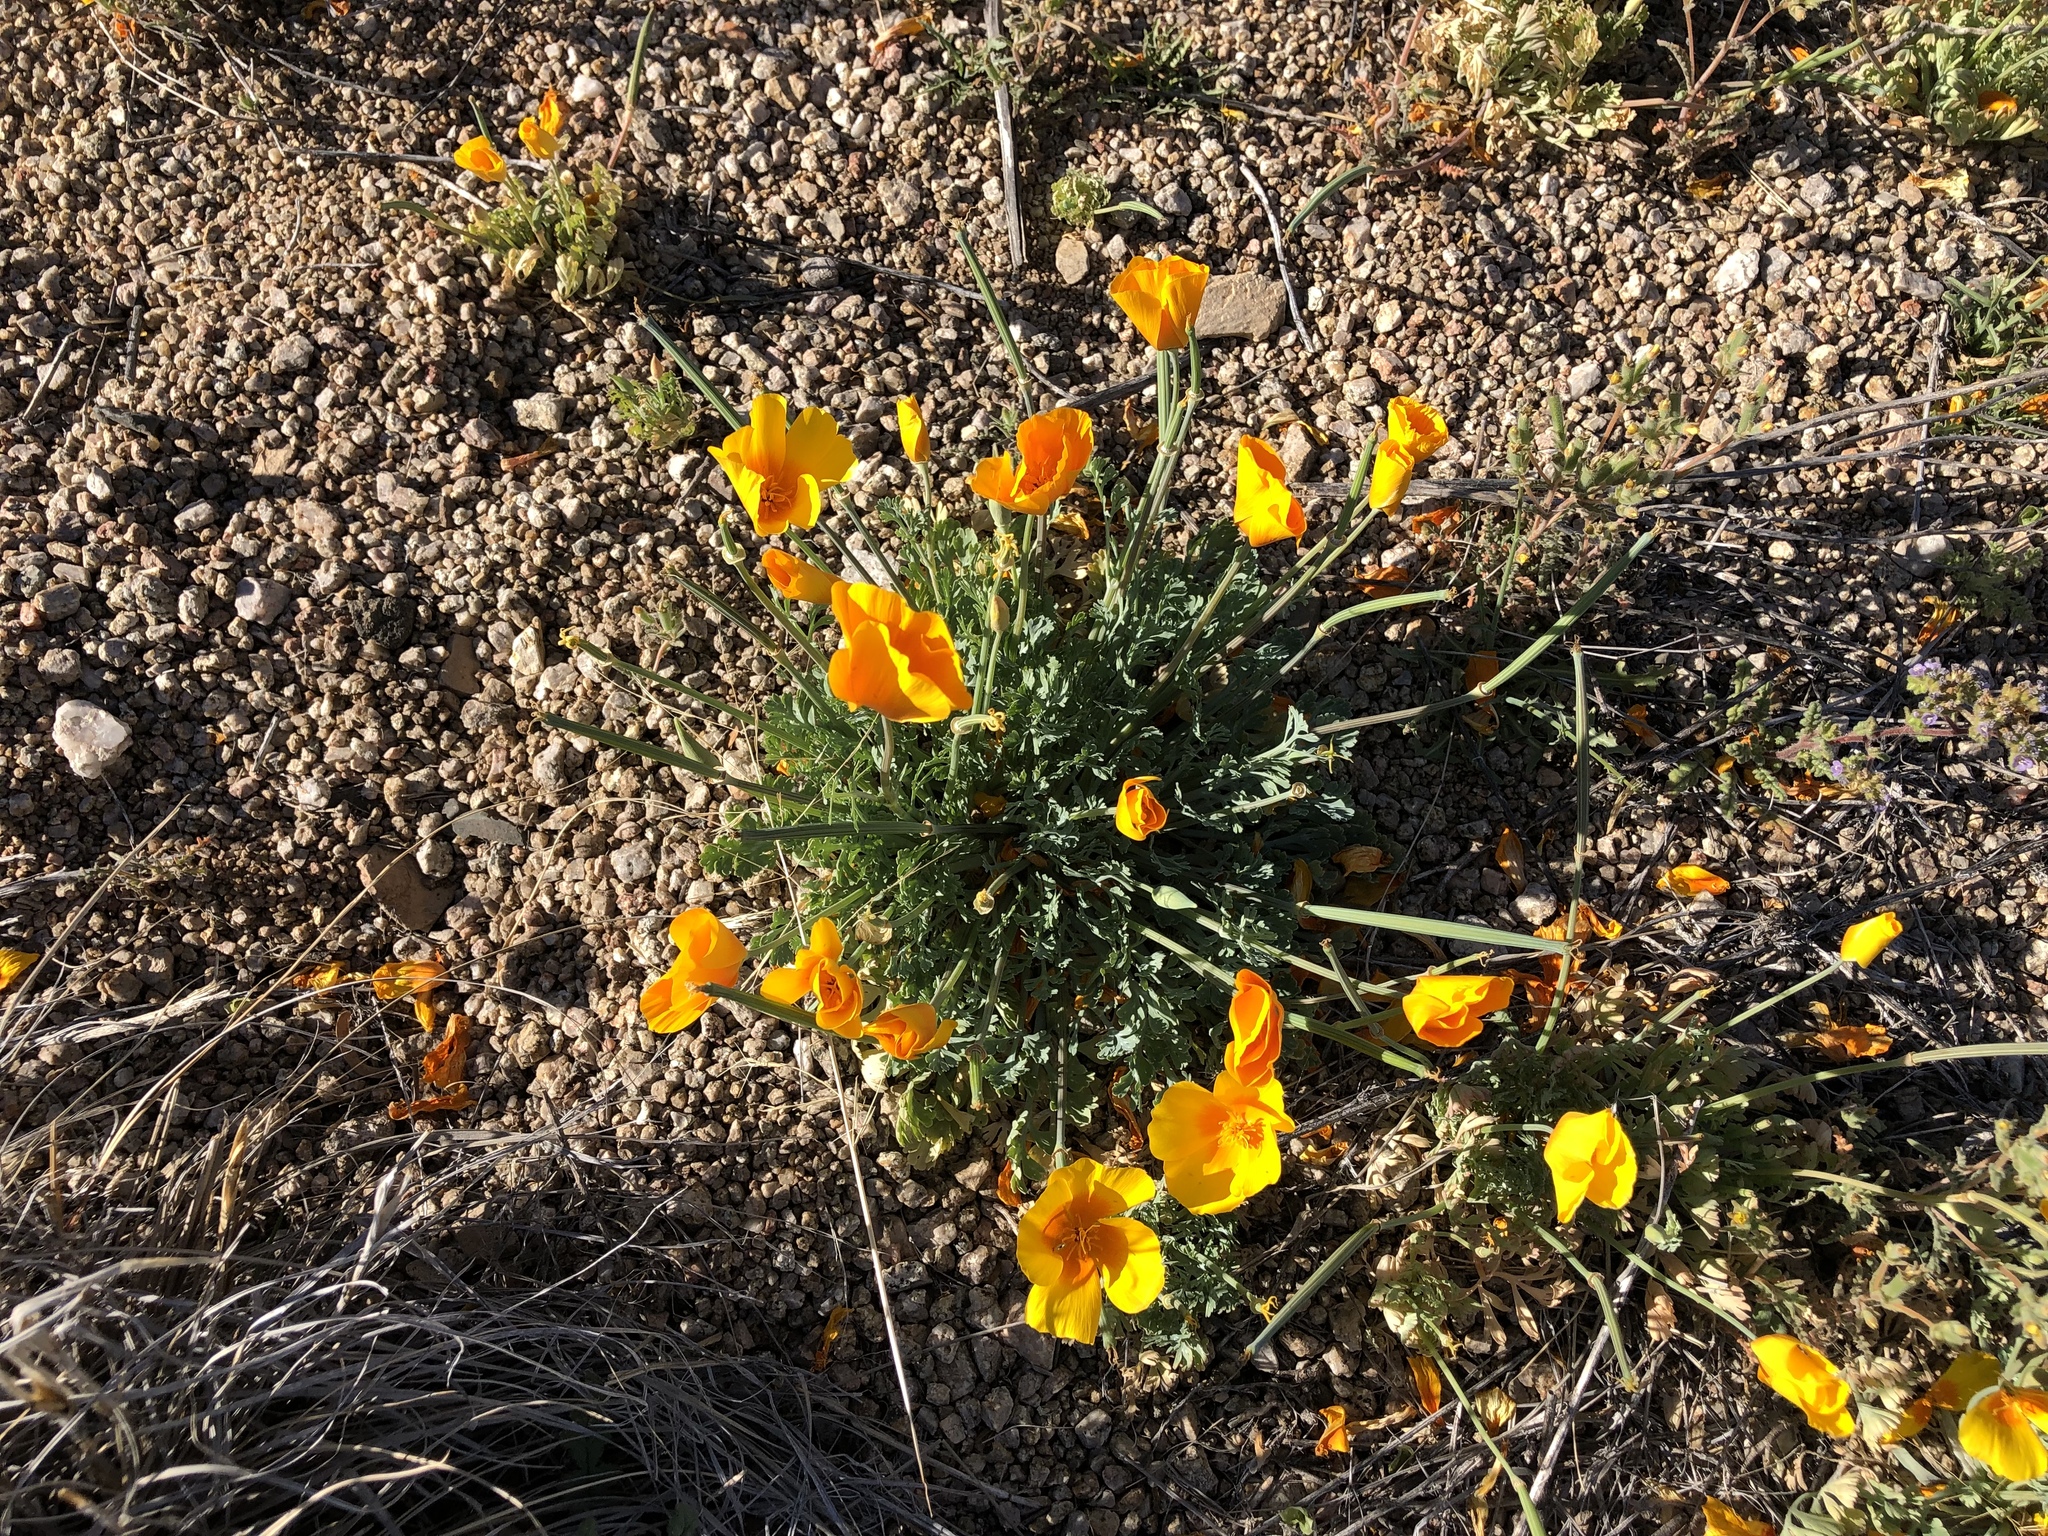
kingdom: Plantae
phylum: Tracheophyta
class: Magnoliopsida
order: Ranunculales
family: Papaveraceae
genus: Eschscholzia
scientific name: Eschscholzia californica
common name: California poppy
